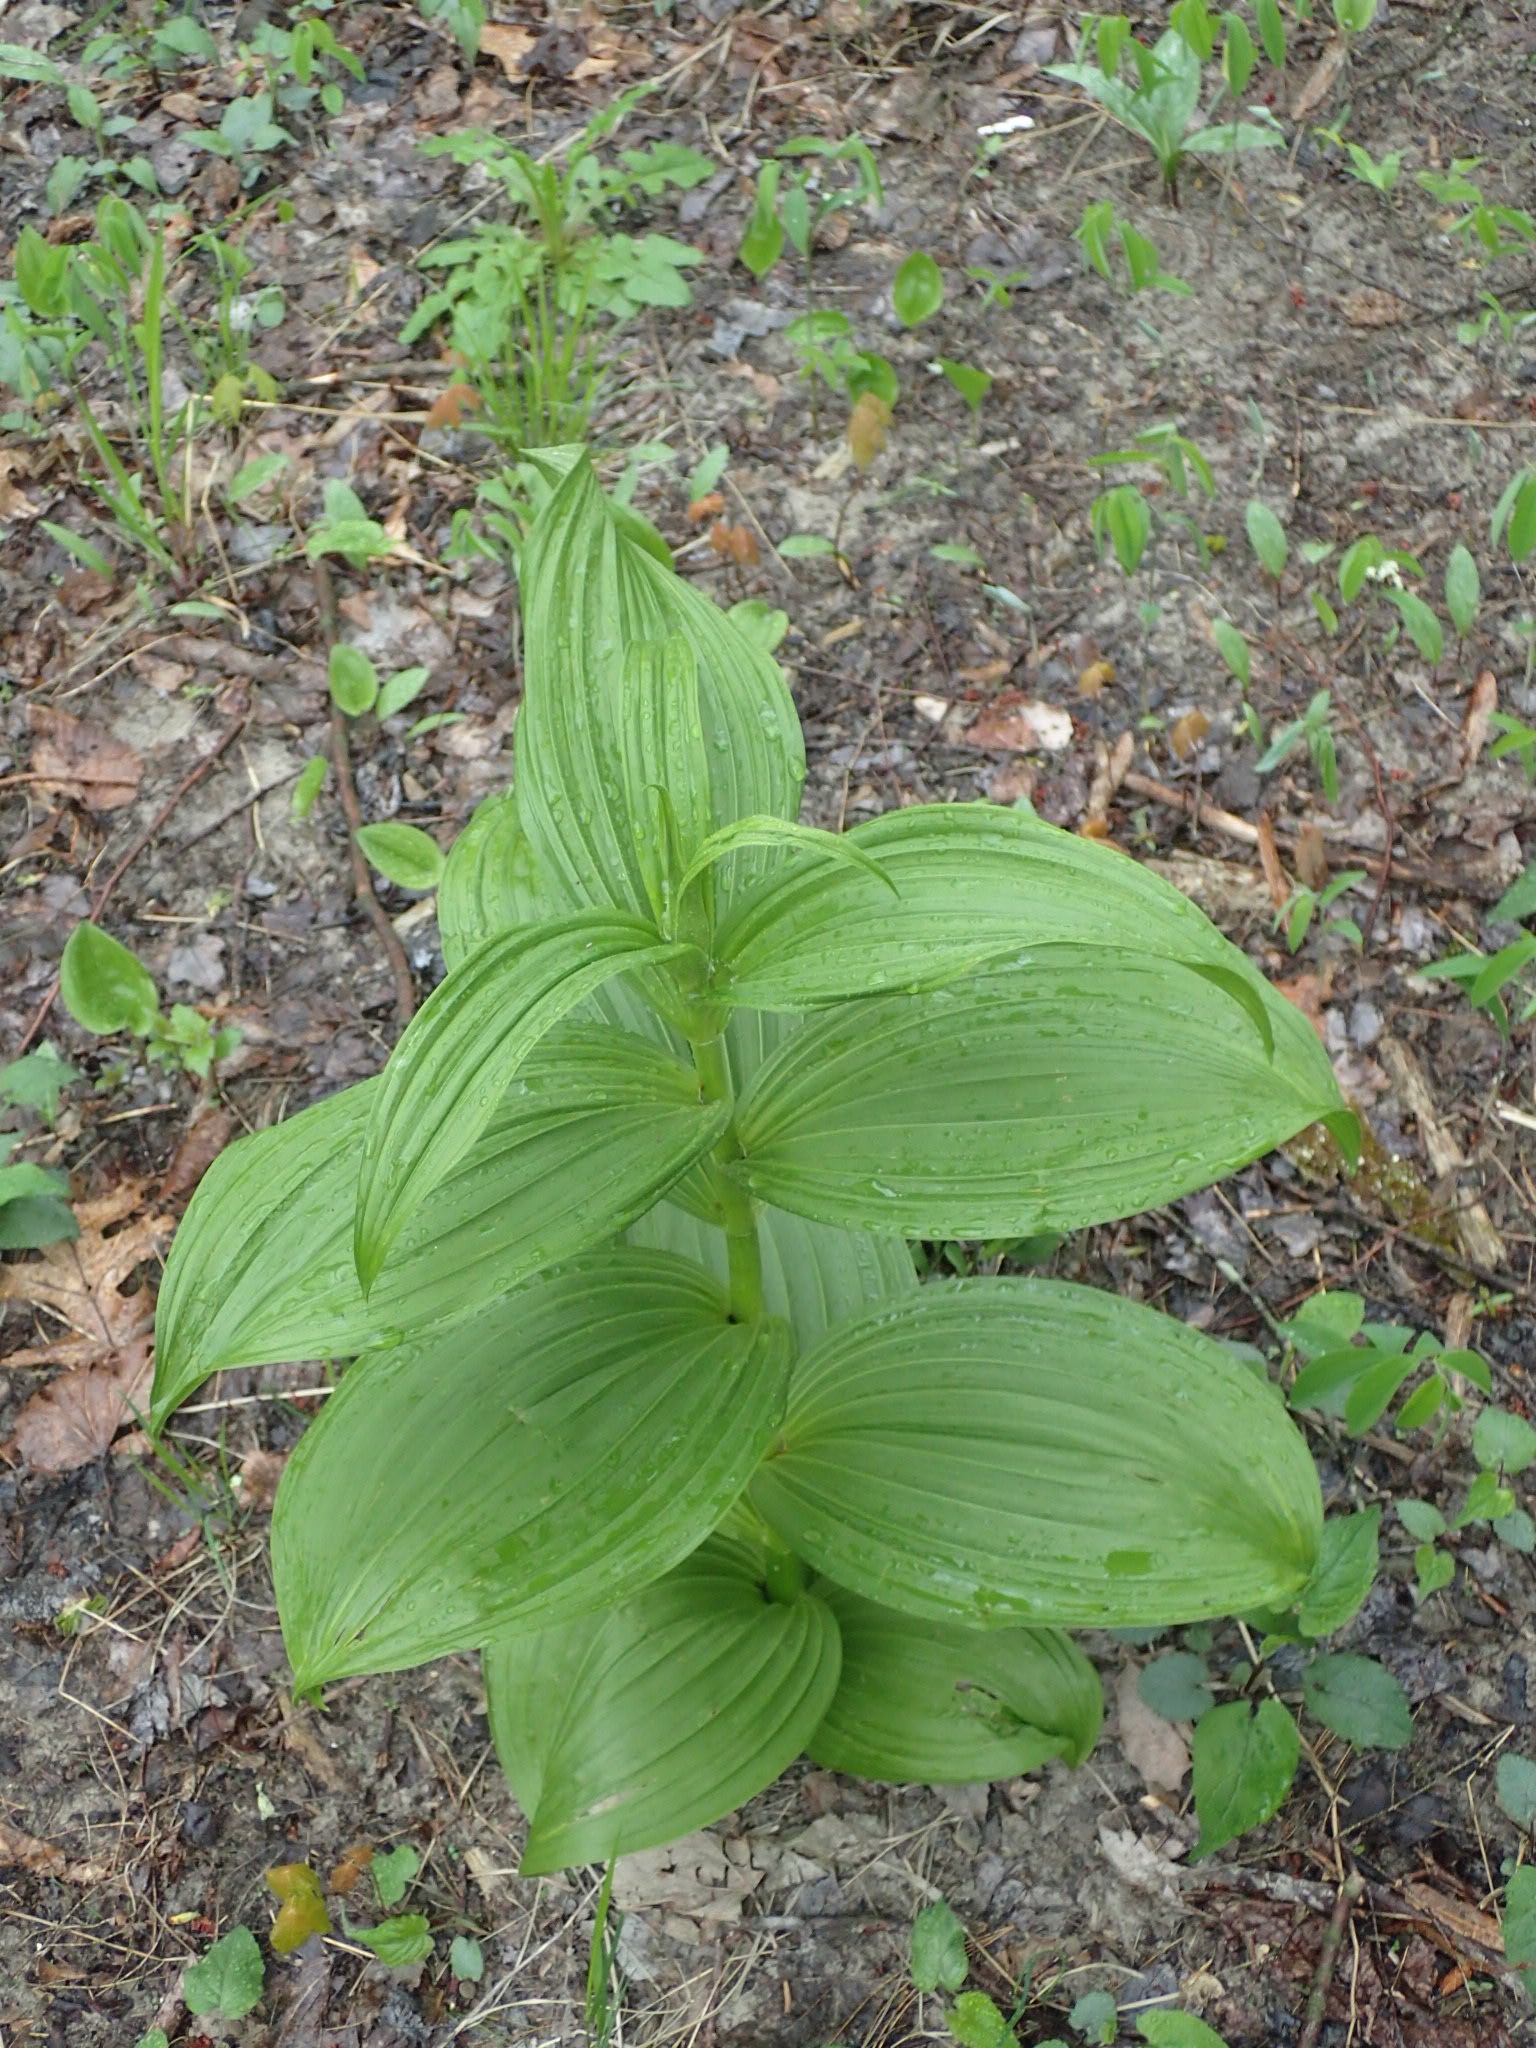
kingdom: Plantae
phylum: Tracheophyta
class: Liliopsida
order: Liliales
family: Melanthiaceae
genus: Veratrum
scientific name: Veratrum viride
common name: American false hellebore
